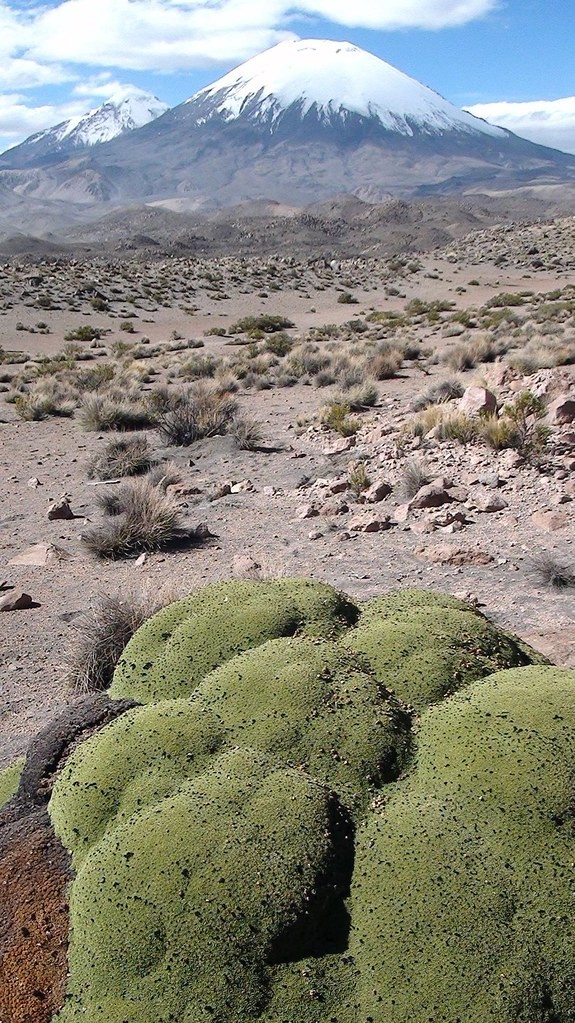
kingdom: Plantae
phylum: Tracheophyta
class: Magnoliopsida
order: Apiales
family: Apiaceae
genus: Azorella
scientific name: Azorella compacta
